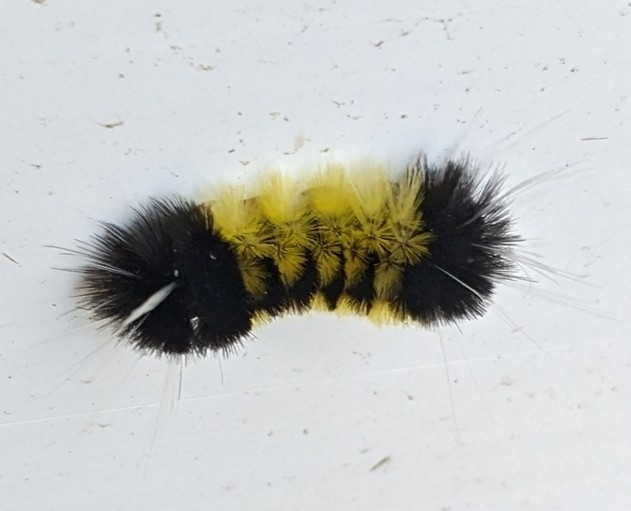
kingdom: Animalia
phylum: Arthropoda
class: Insecta
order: Lepidoptera
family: Erebidae
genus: Lophocampa
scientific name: Lophocampa maculata
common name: Spotted tussock moth
